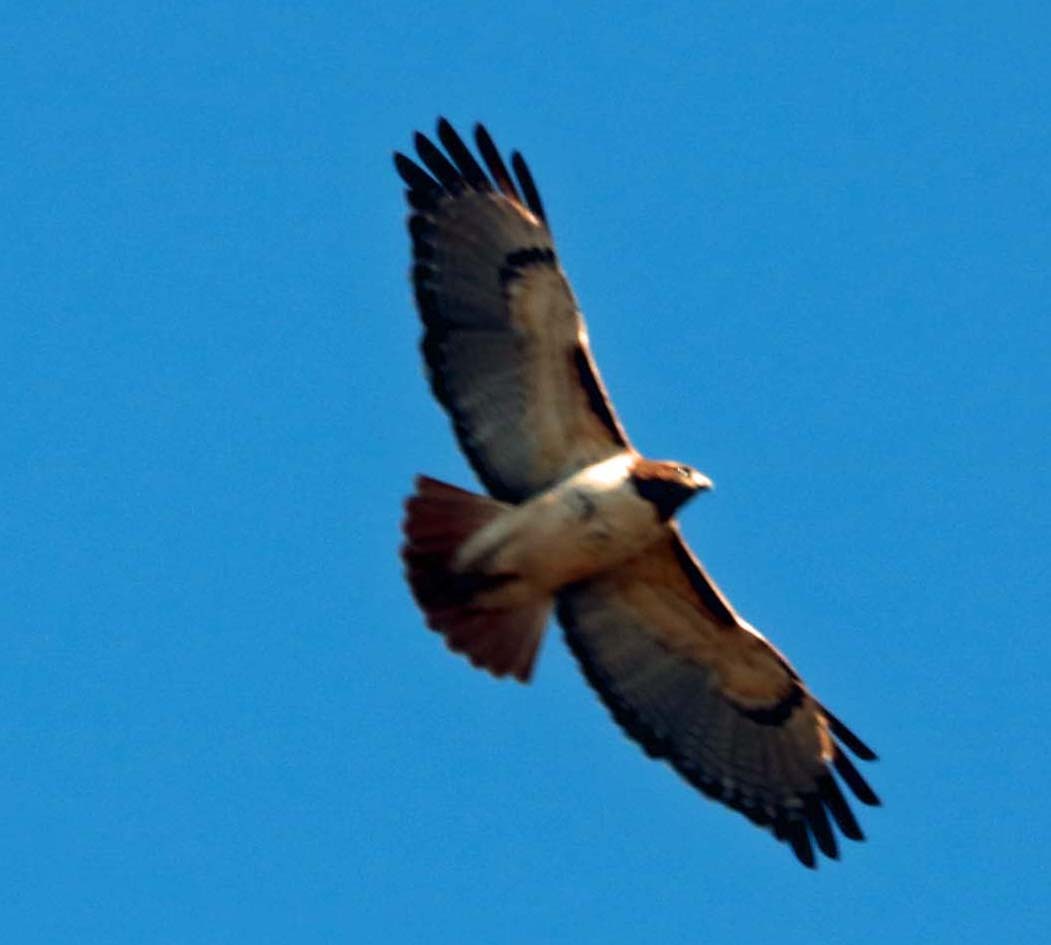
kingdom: Animalia
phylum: Chordata
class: Aves
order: Accipitriformes
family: Accipitridae
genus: Buteo
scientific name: Buteo jamaicensis
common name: Red-tailed hawk
